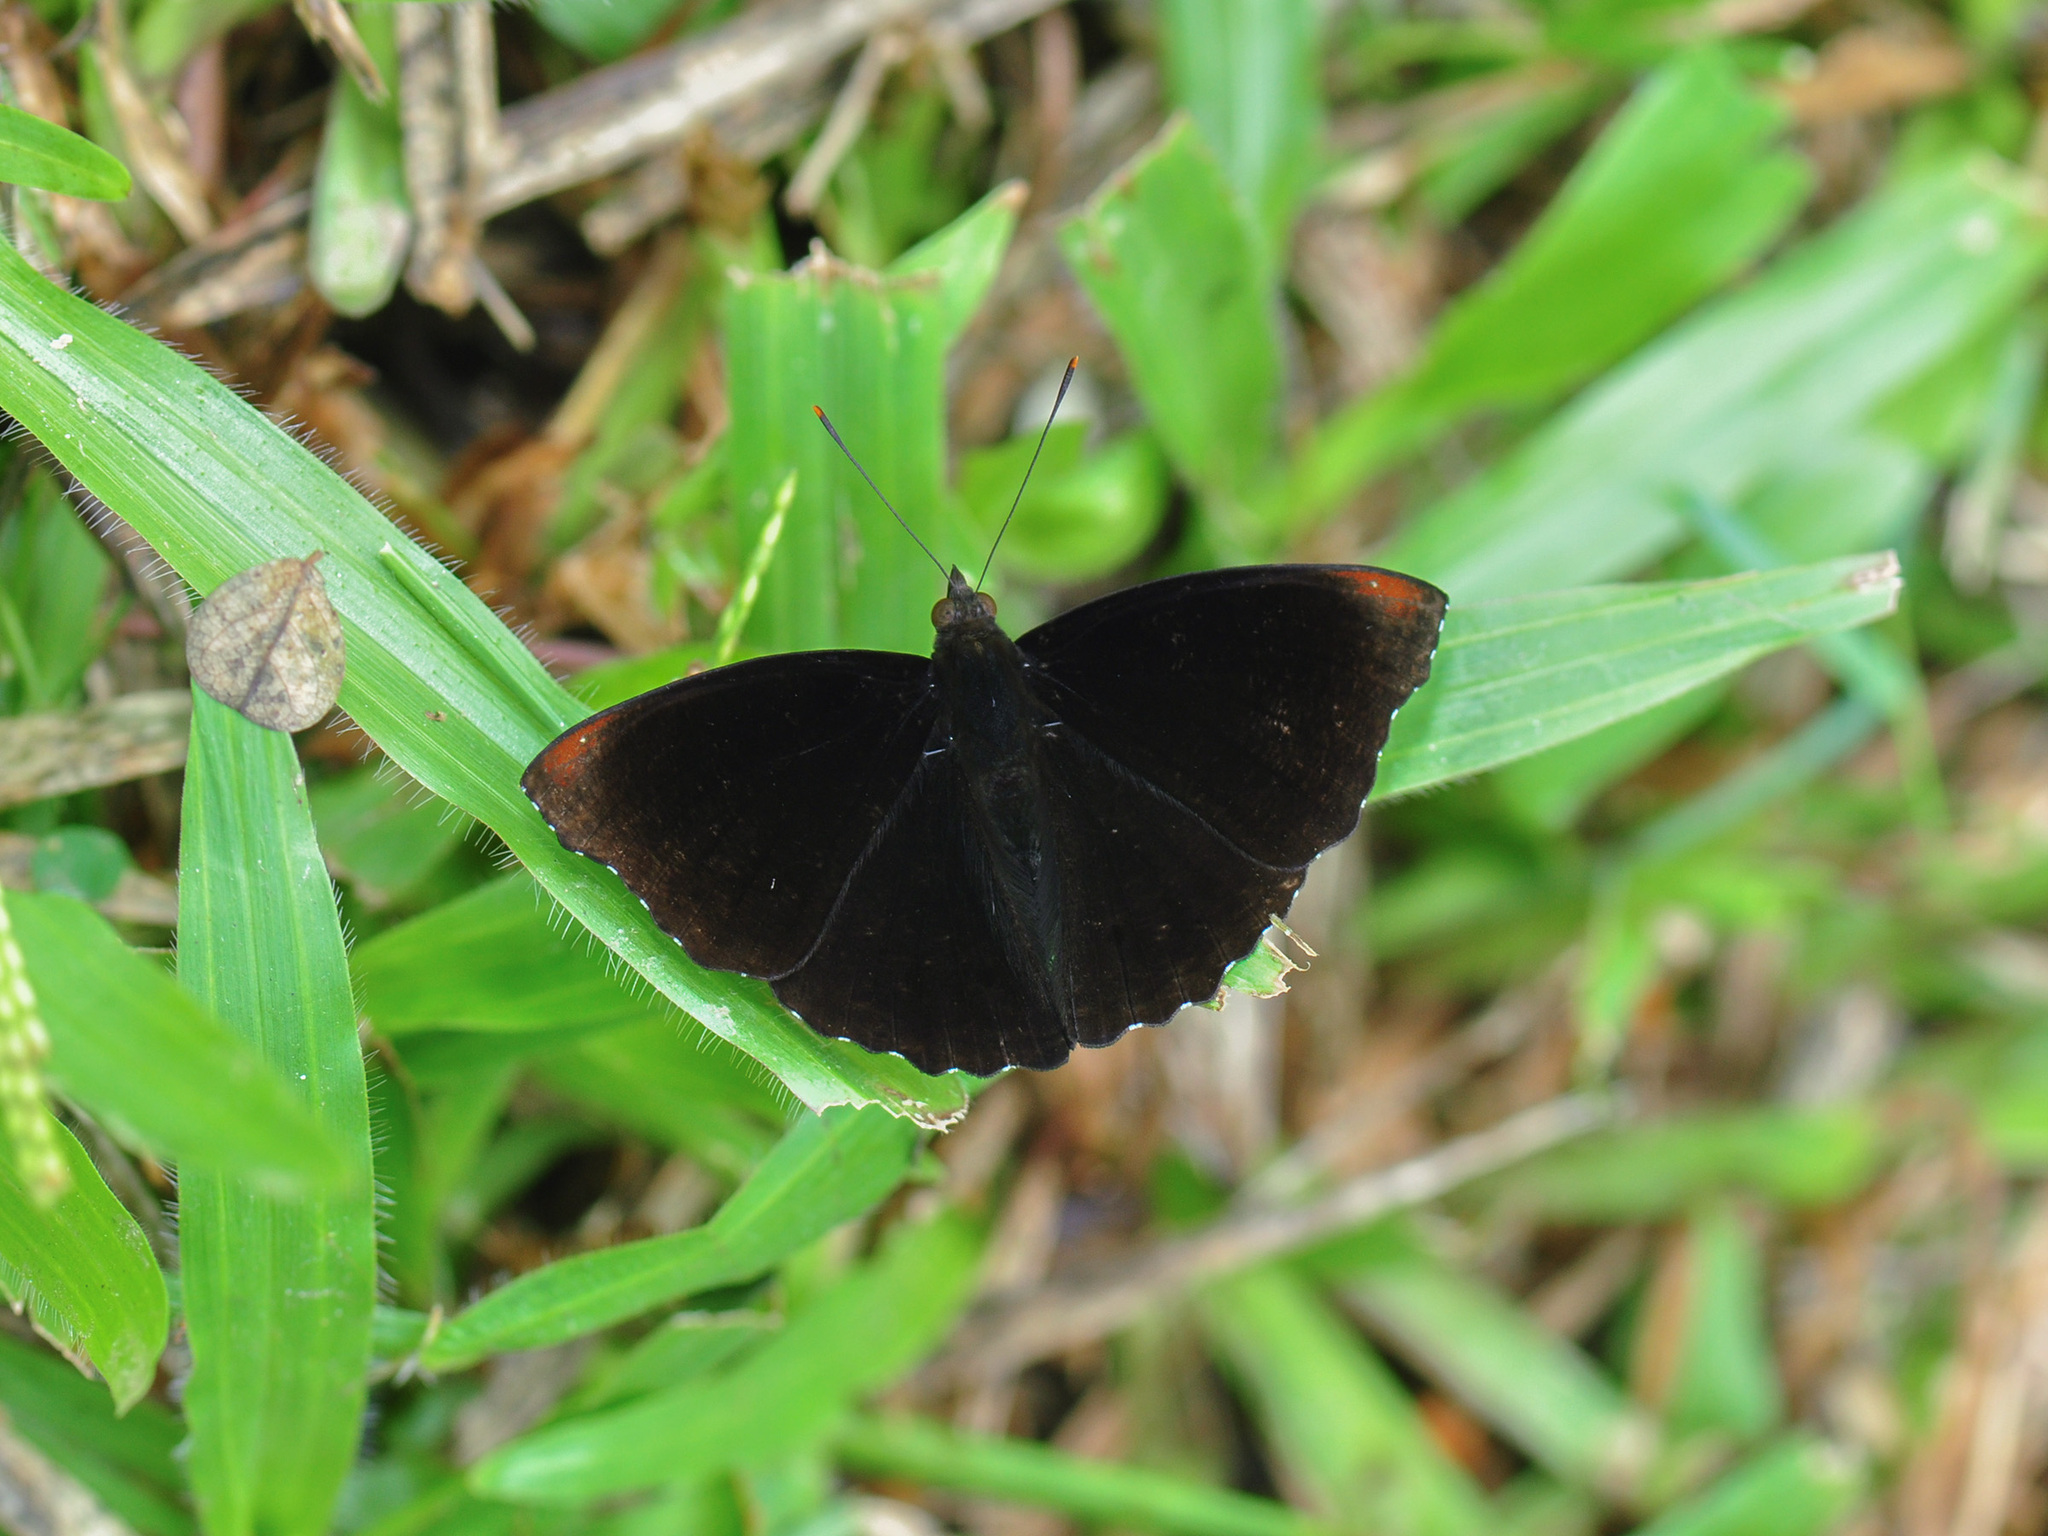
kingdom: Animalia
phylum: Arthropoda
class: Insecta
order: Lepidoptera
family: Nymphalidae
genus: Apatura
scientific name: Apatura Rohana spec
